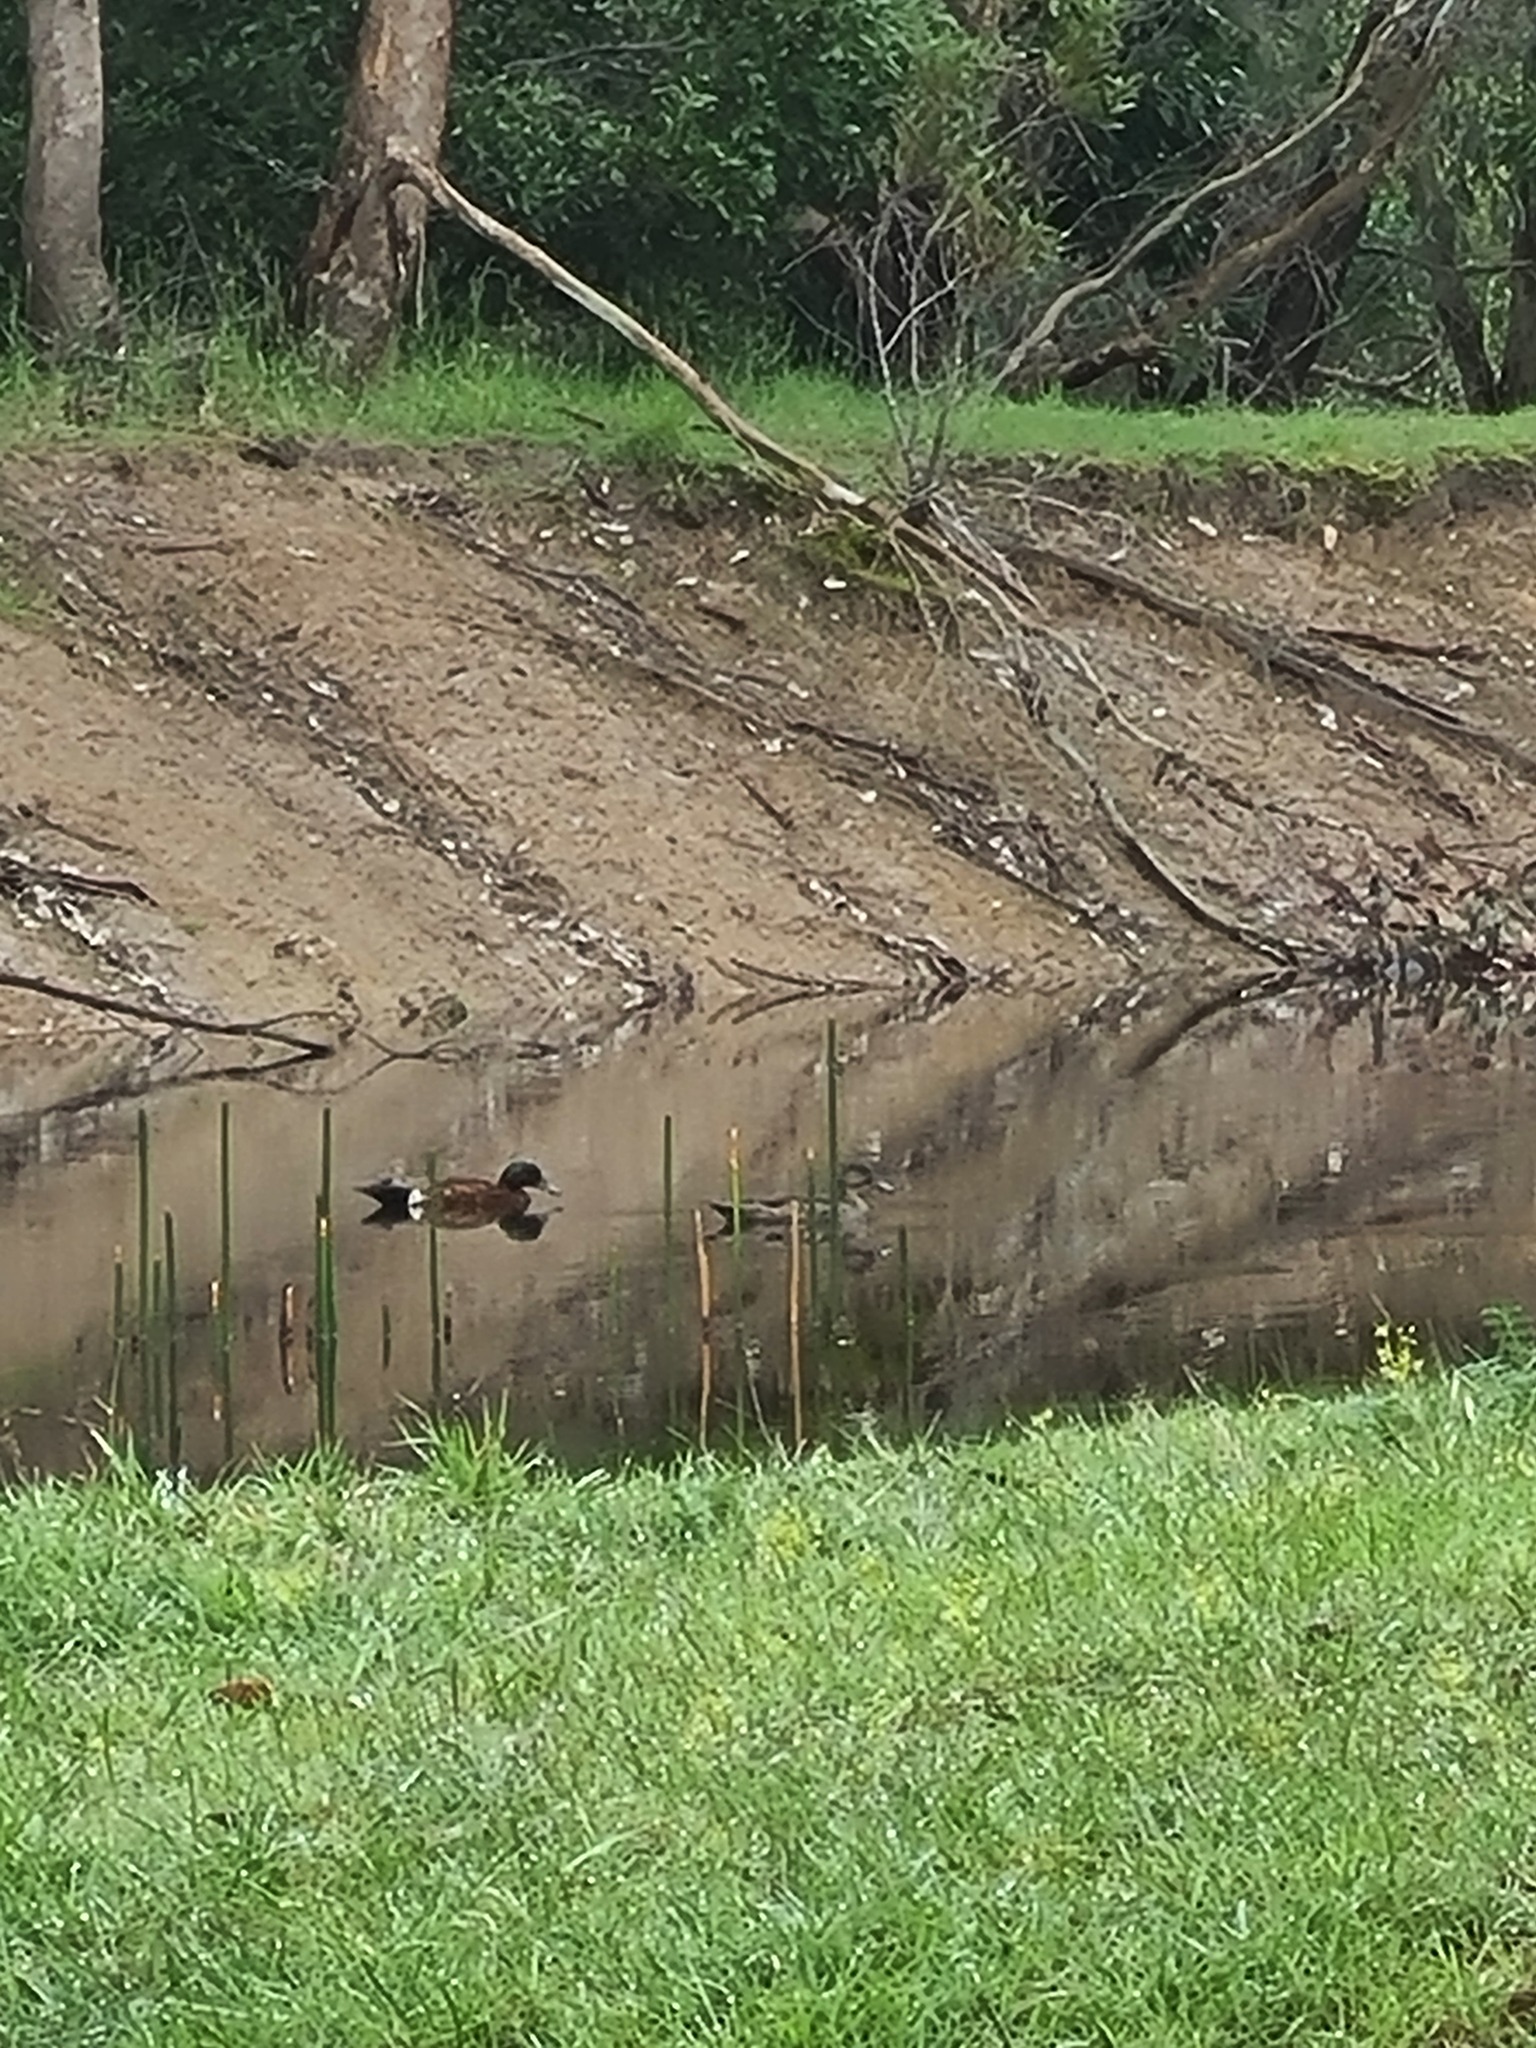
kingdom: Animalia
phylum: Chordata
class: Aves
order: Anseriformes
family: Anatidae
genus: Anas
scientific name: Anas castanea
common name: Chestnut teal
